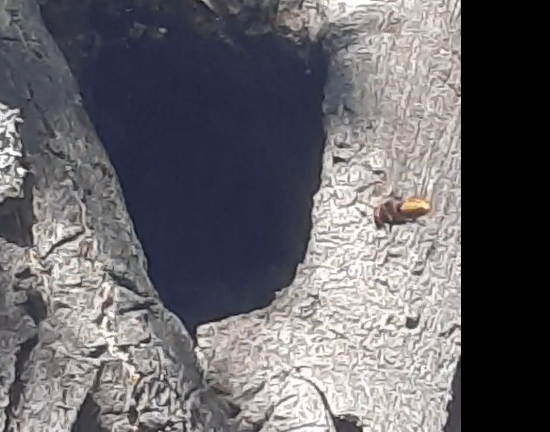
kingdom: Animalia
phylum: Arthropoda
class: Insecta
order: Hymenoptera
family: Vespidae
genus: Vespa
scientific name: Vespa crabro
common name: Hornet
